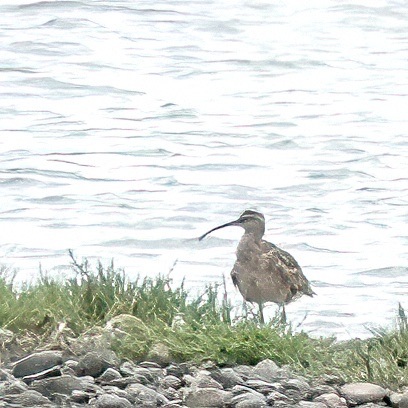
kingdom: Animalia
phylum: Chordata
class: Aves
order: Charadriiformes
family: Scolopacidae
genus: Numenius
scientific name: Numenius phaeopus
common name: Whimbrel
